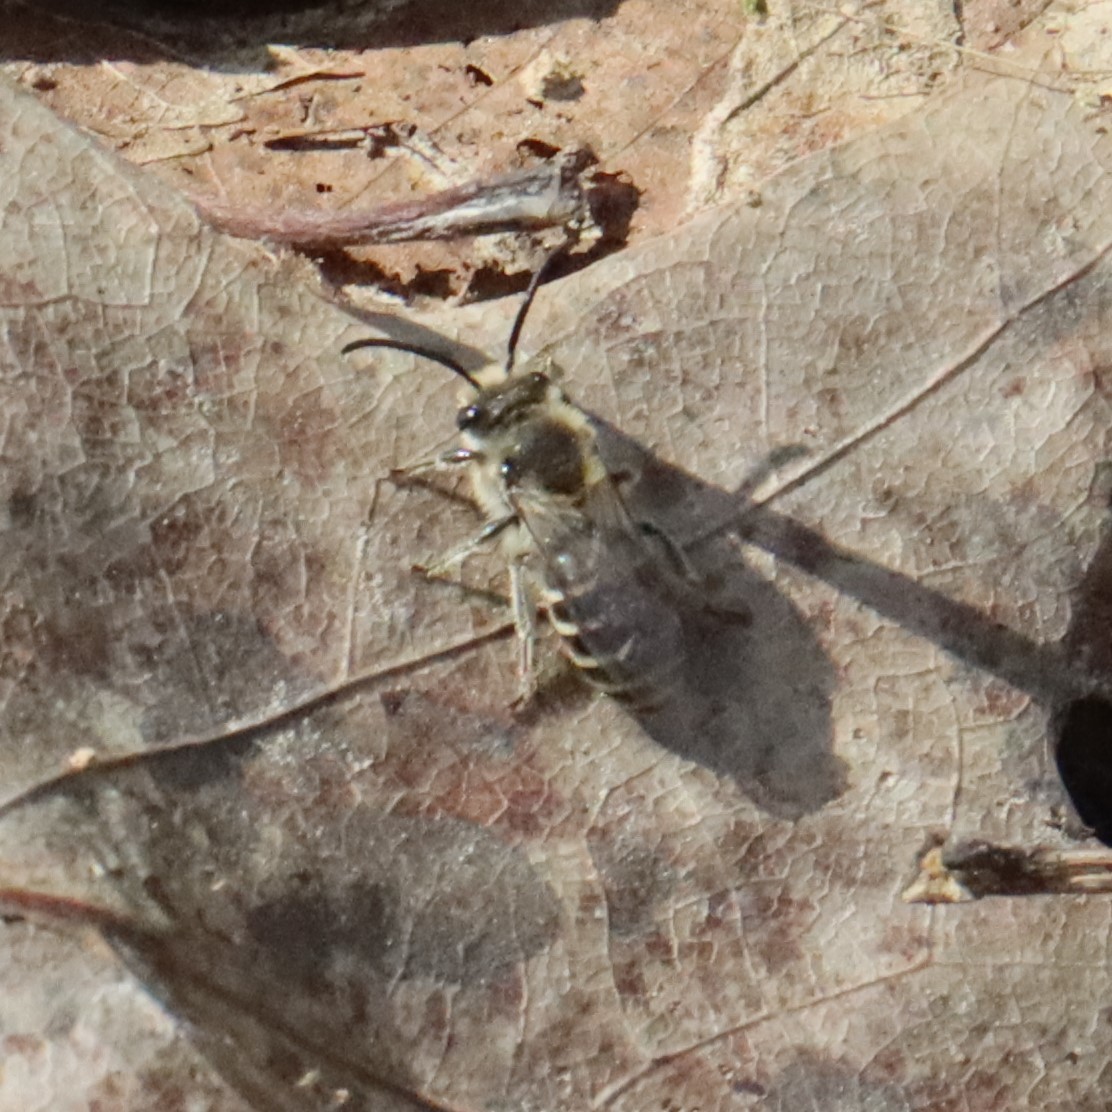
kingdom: Animalia
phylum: Arthropoda
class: Insecta
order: Hymenoptera
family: Colletidae
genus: Colletes
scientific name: Colletes inaequalis
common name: Unequal cellophane bee
